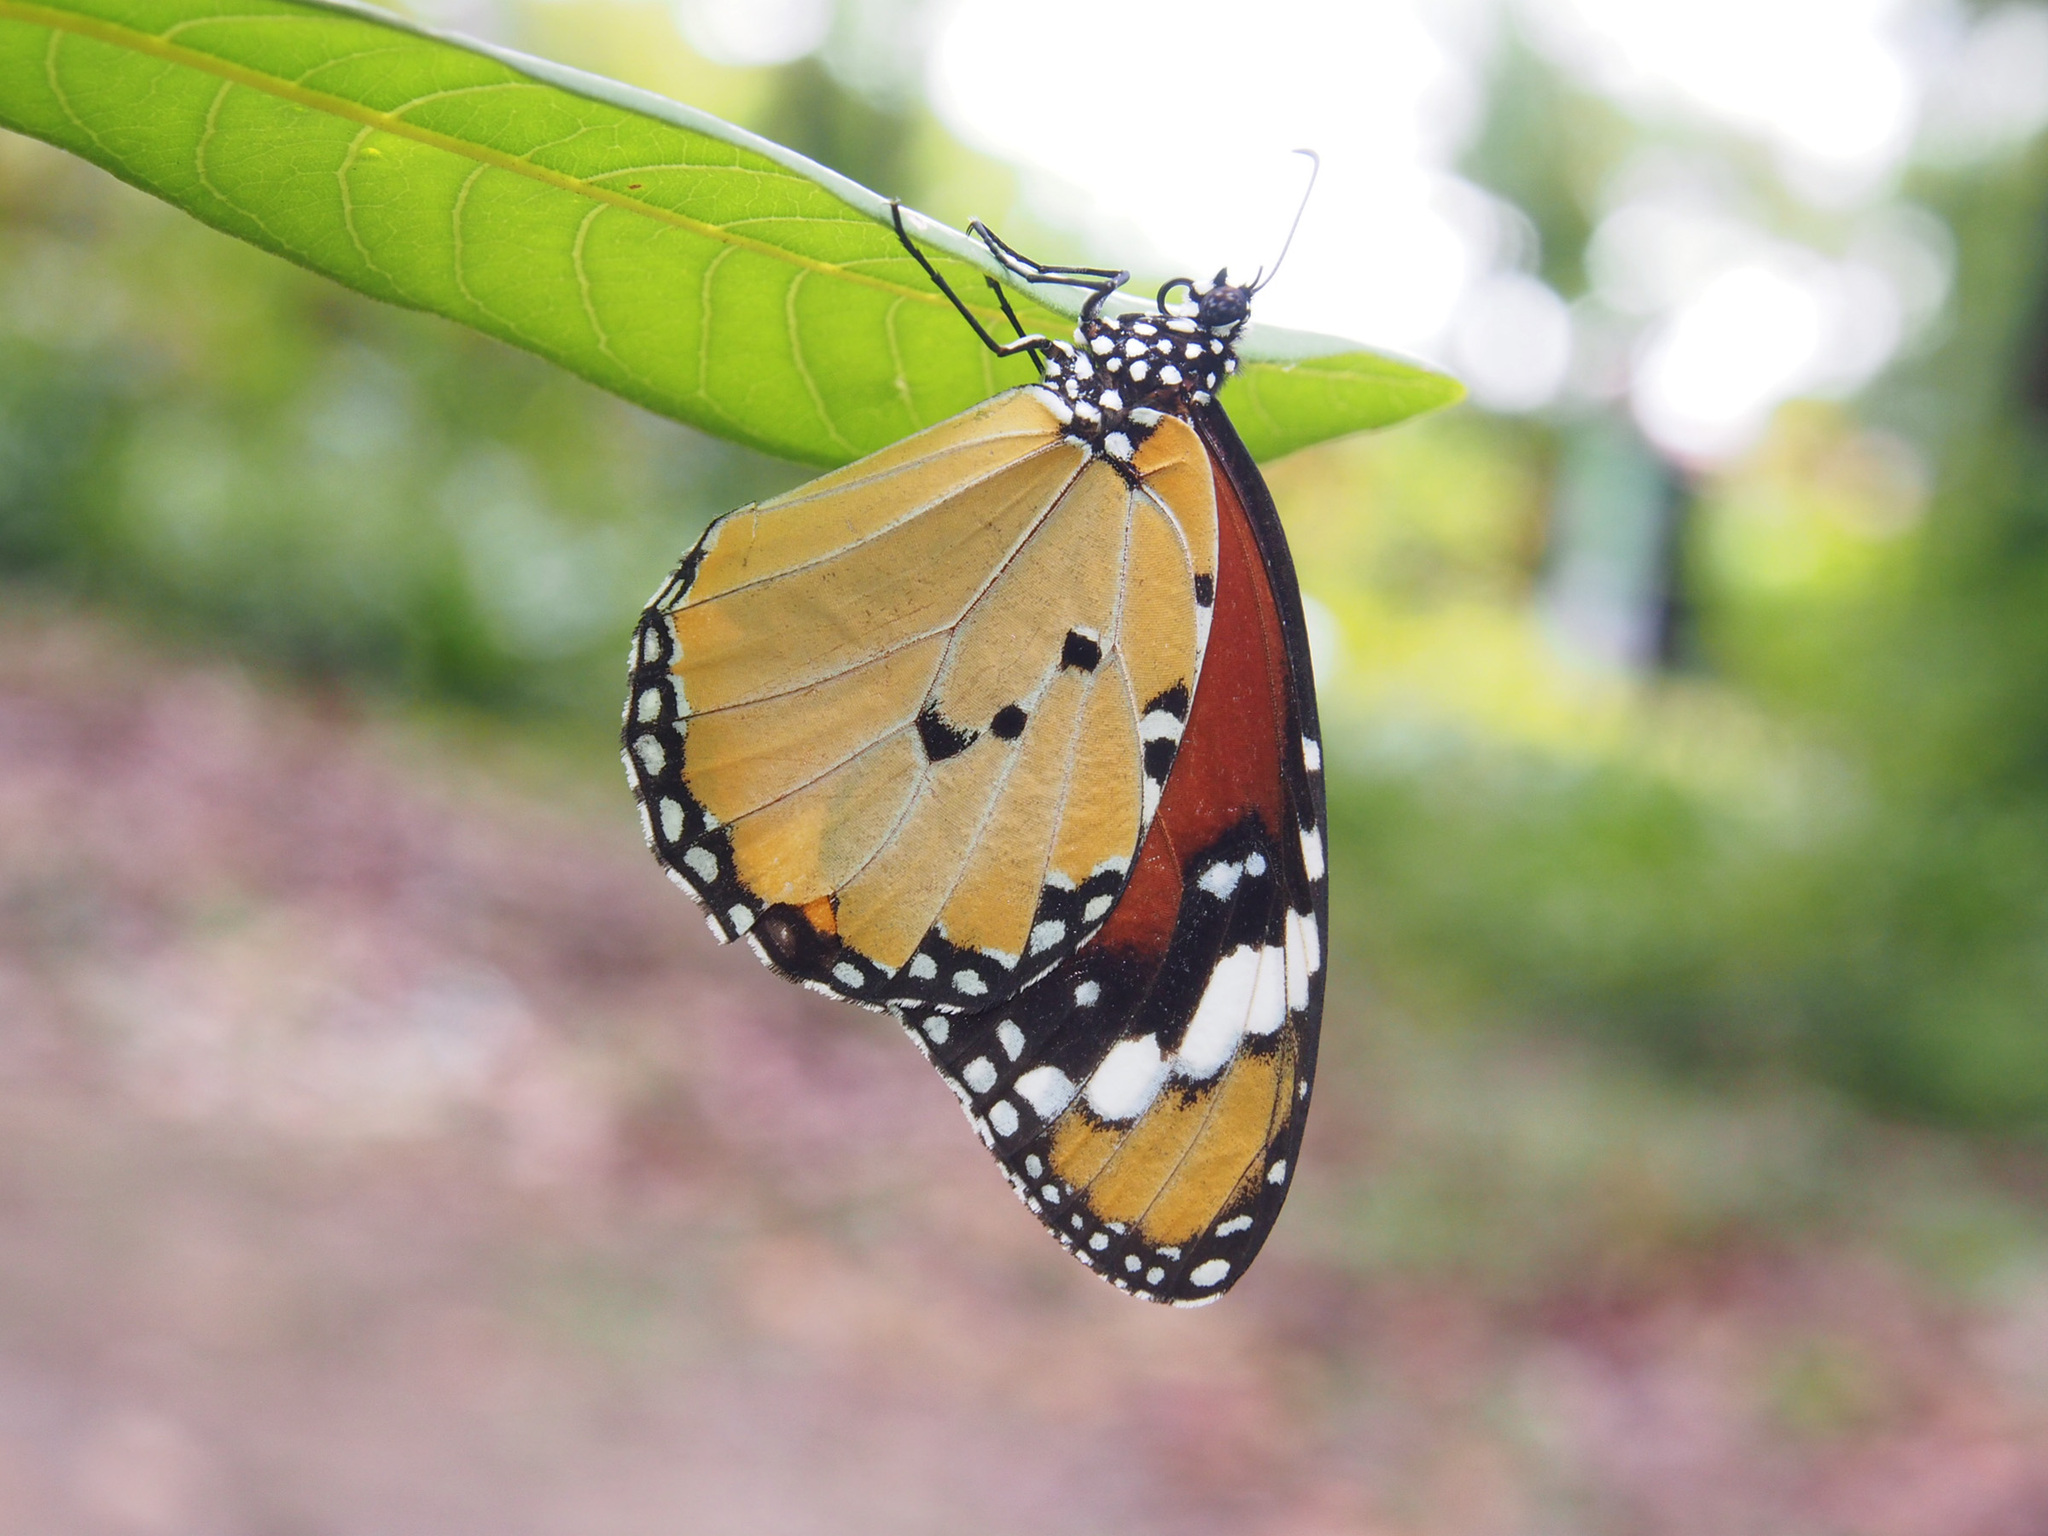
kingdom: Animalia
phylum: Arthropoda
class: Insecta
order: Lepidoptera
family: Nymphalidae
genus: Danaus
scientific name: Danaus chrysippus
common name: Plain tiger
